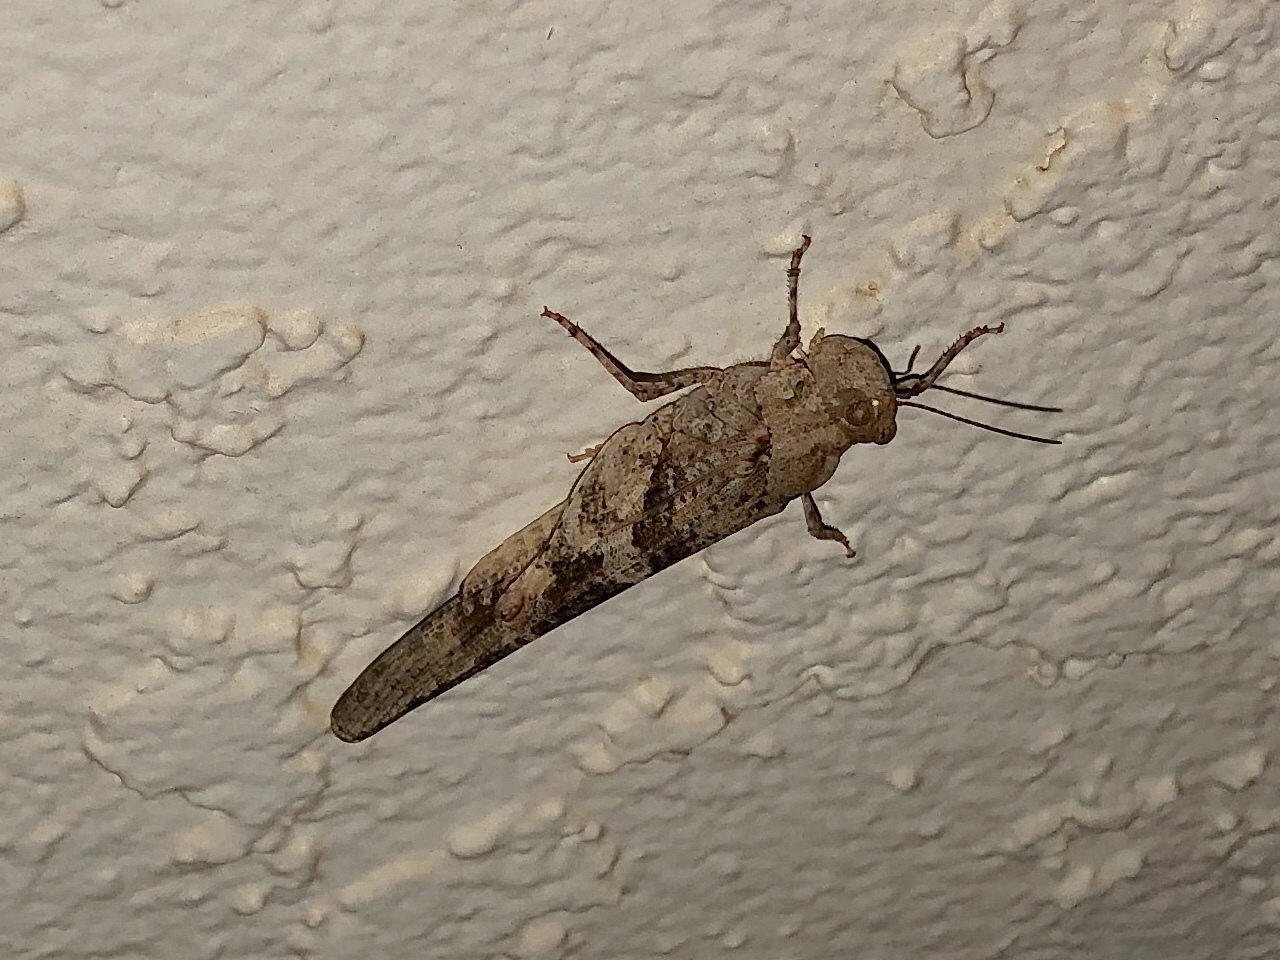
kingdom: Animalia
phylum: Arthropoda
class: Insecta
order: Orthoptera
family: Acrididae
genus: Trimerotropis
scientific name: Trimerotropis pallidipennis
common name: Pallid-winged grasshopper
